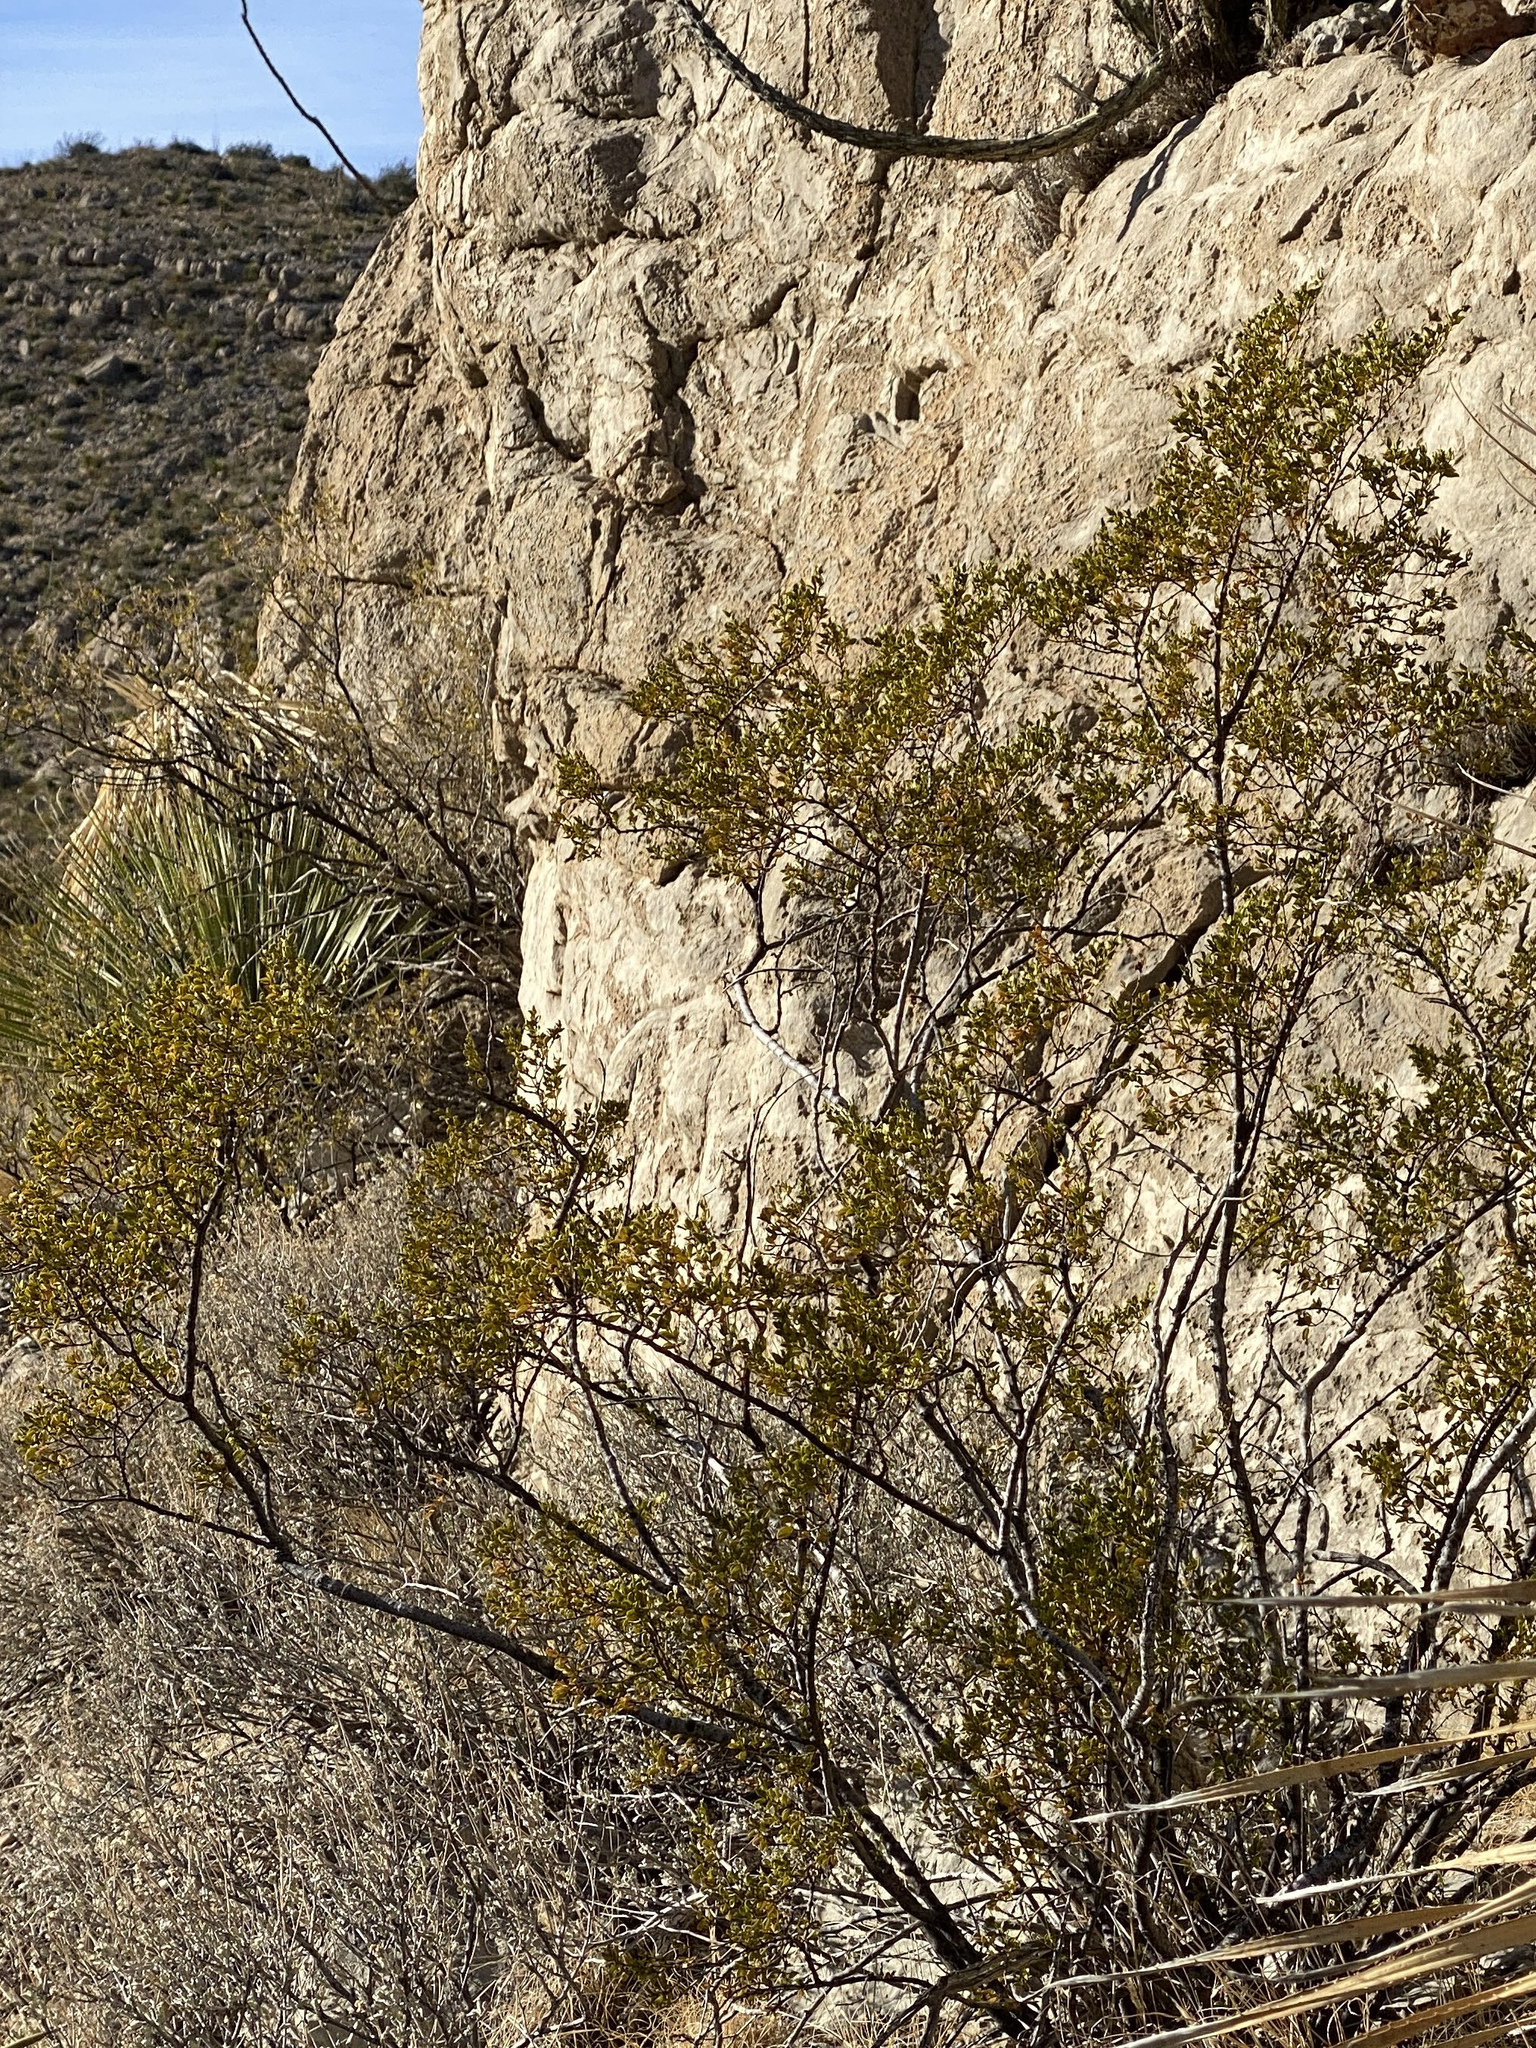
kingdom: Plantae
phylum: Tracheophyta
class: Magnoliopsida
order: Zygophyllales
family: Zygophyllaceae
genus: Larrea
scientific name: Larrea tridentata
